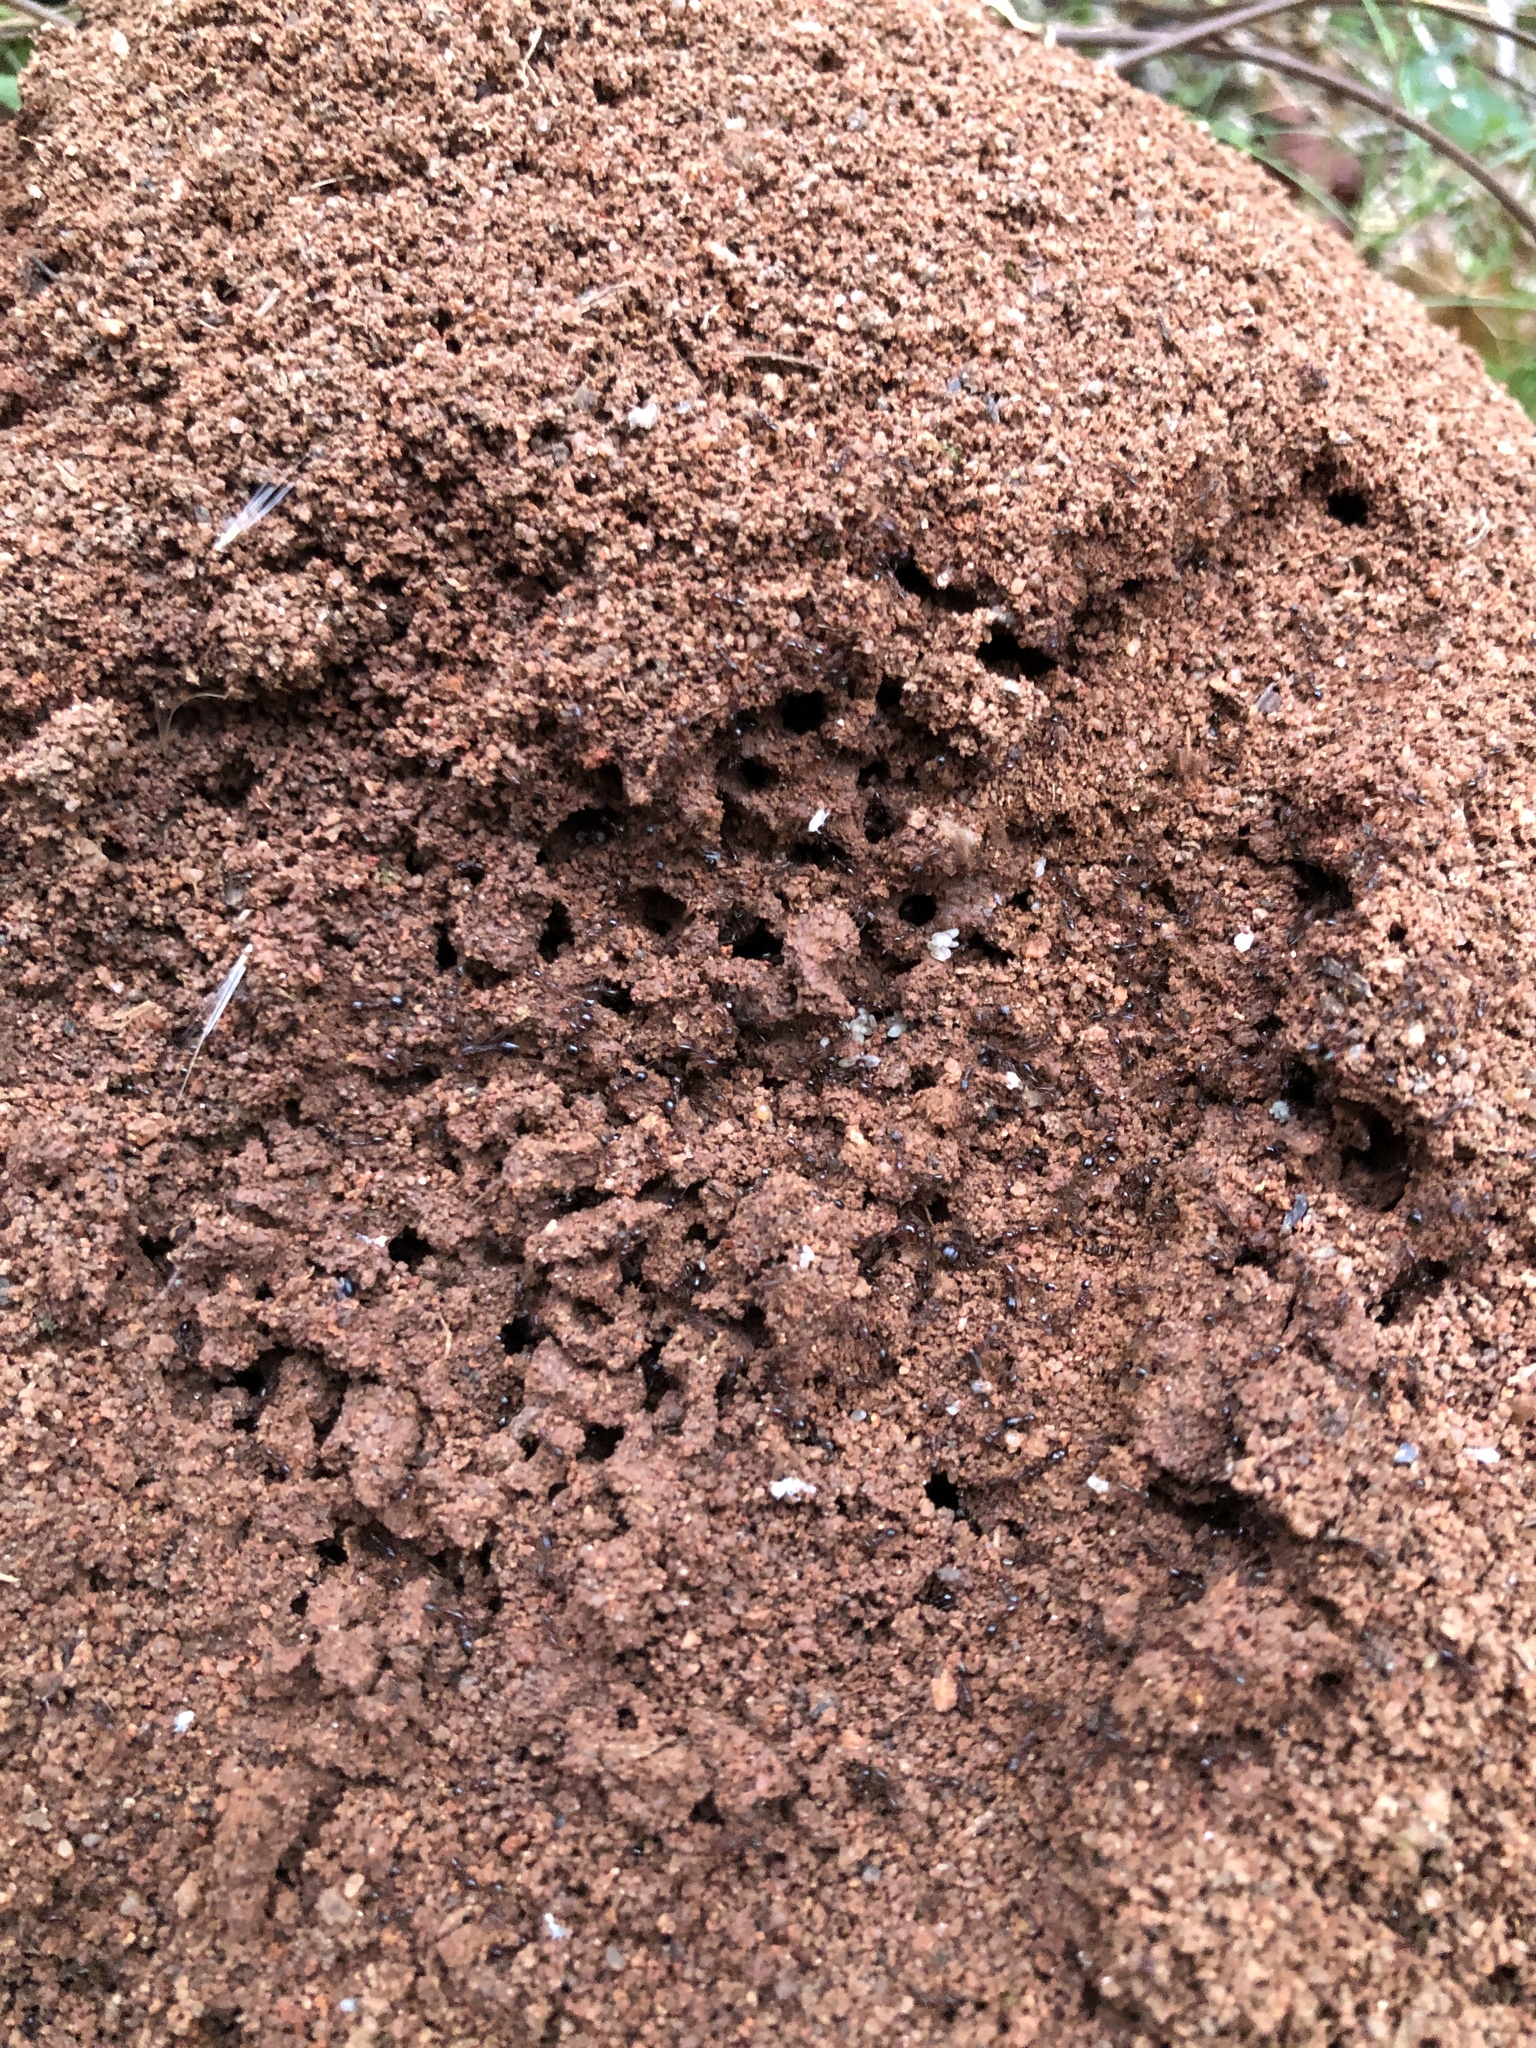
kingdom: Animalia
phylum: Arthropoda
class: Insecta
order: Hymenoptera
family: Formicidae
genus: Solenopsis
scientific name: Solenopsis invicta
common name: Red imported fire ant
